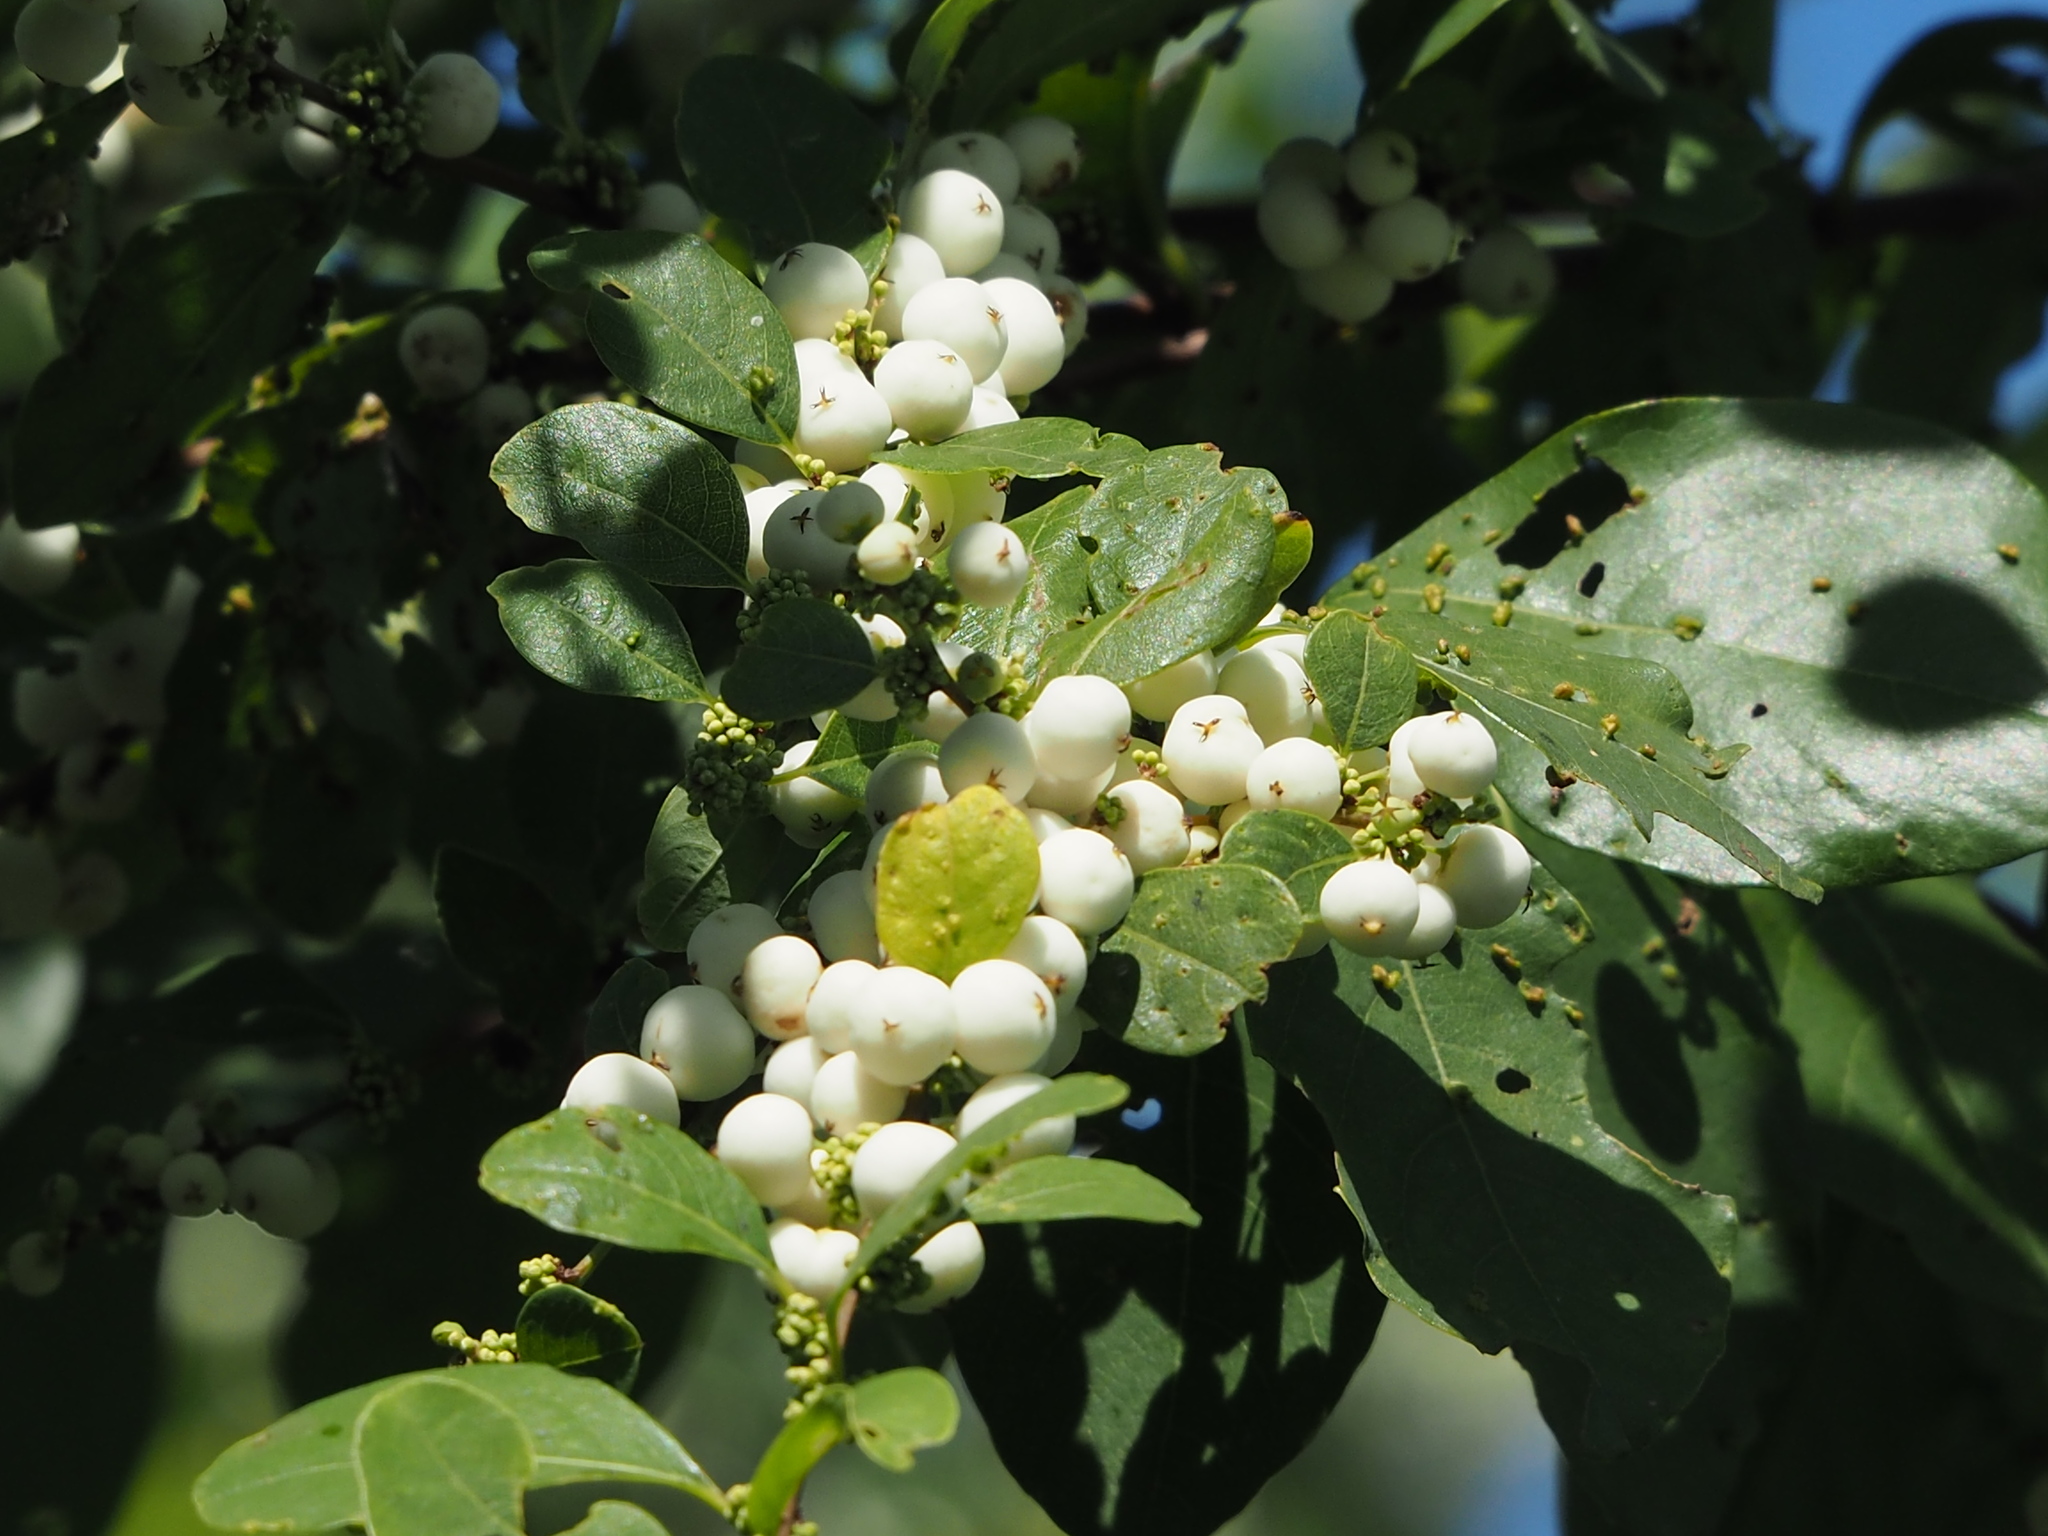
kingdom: Plantae
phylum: Tracheophyta
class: Magnoliopsida
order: Malpighiales
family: Phyllanthaceae
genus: Flueggea
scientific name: Flueggea virosa
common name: Common bushweed
